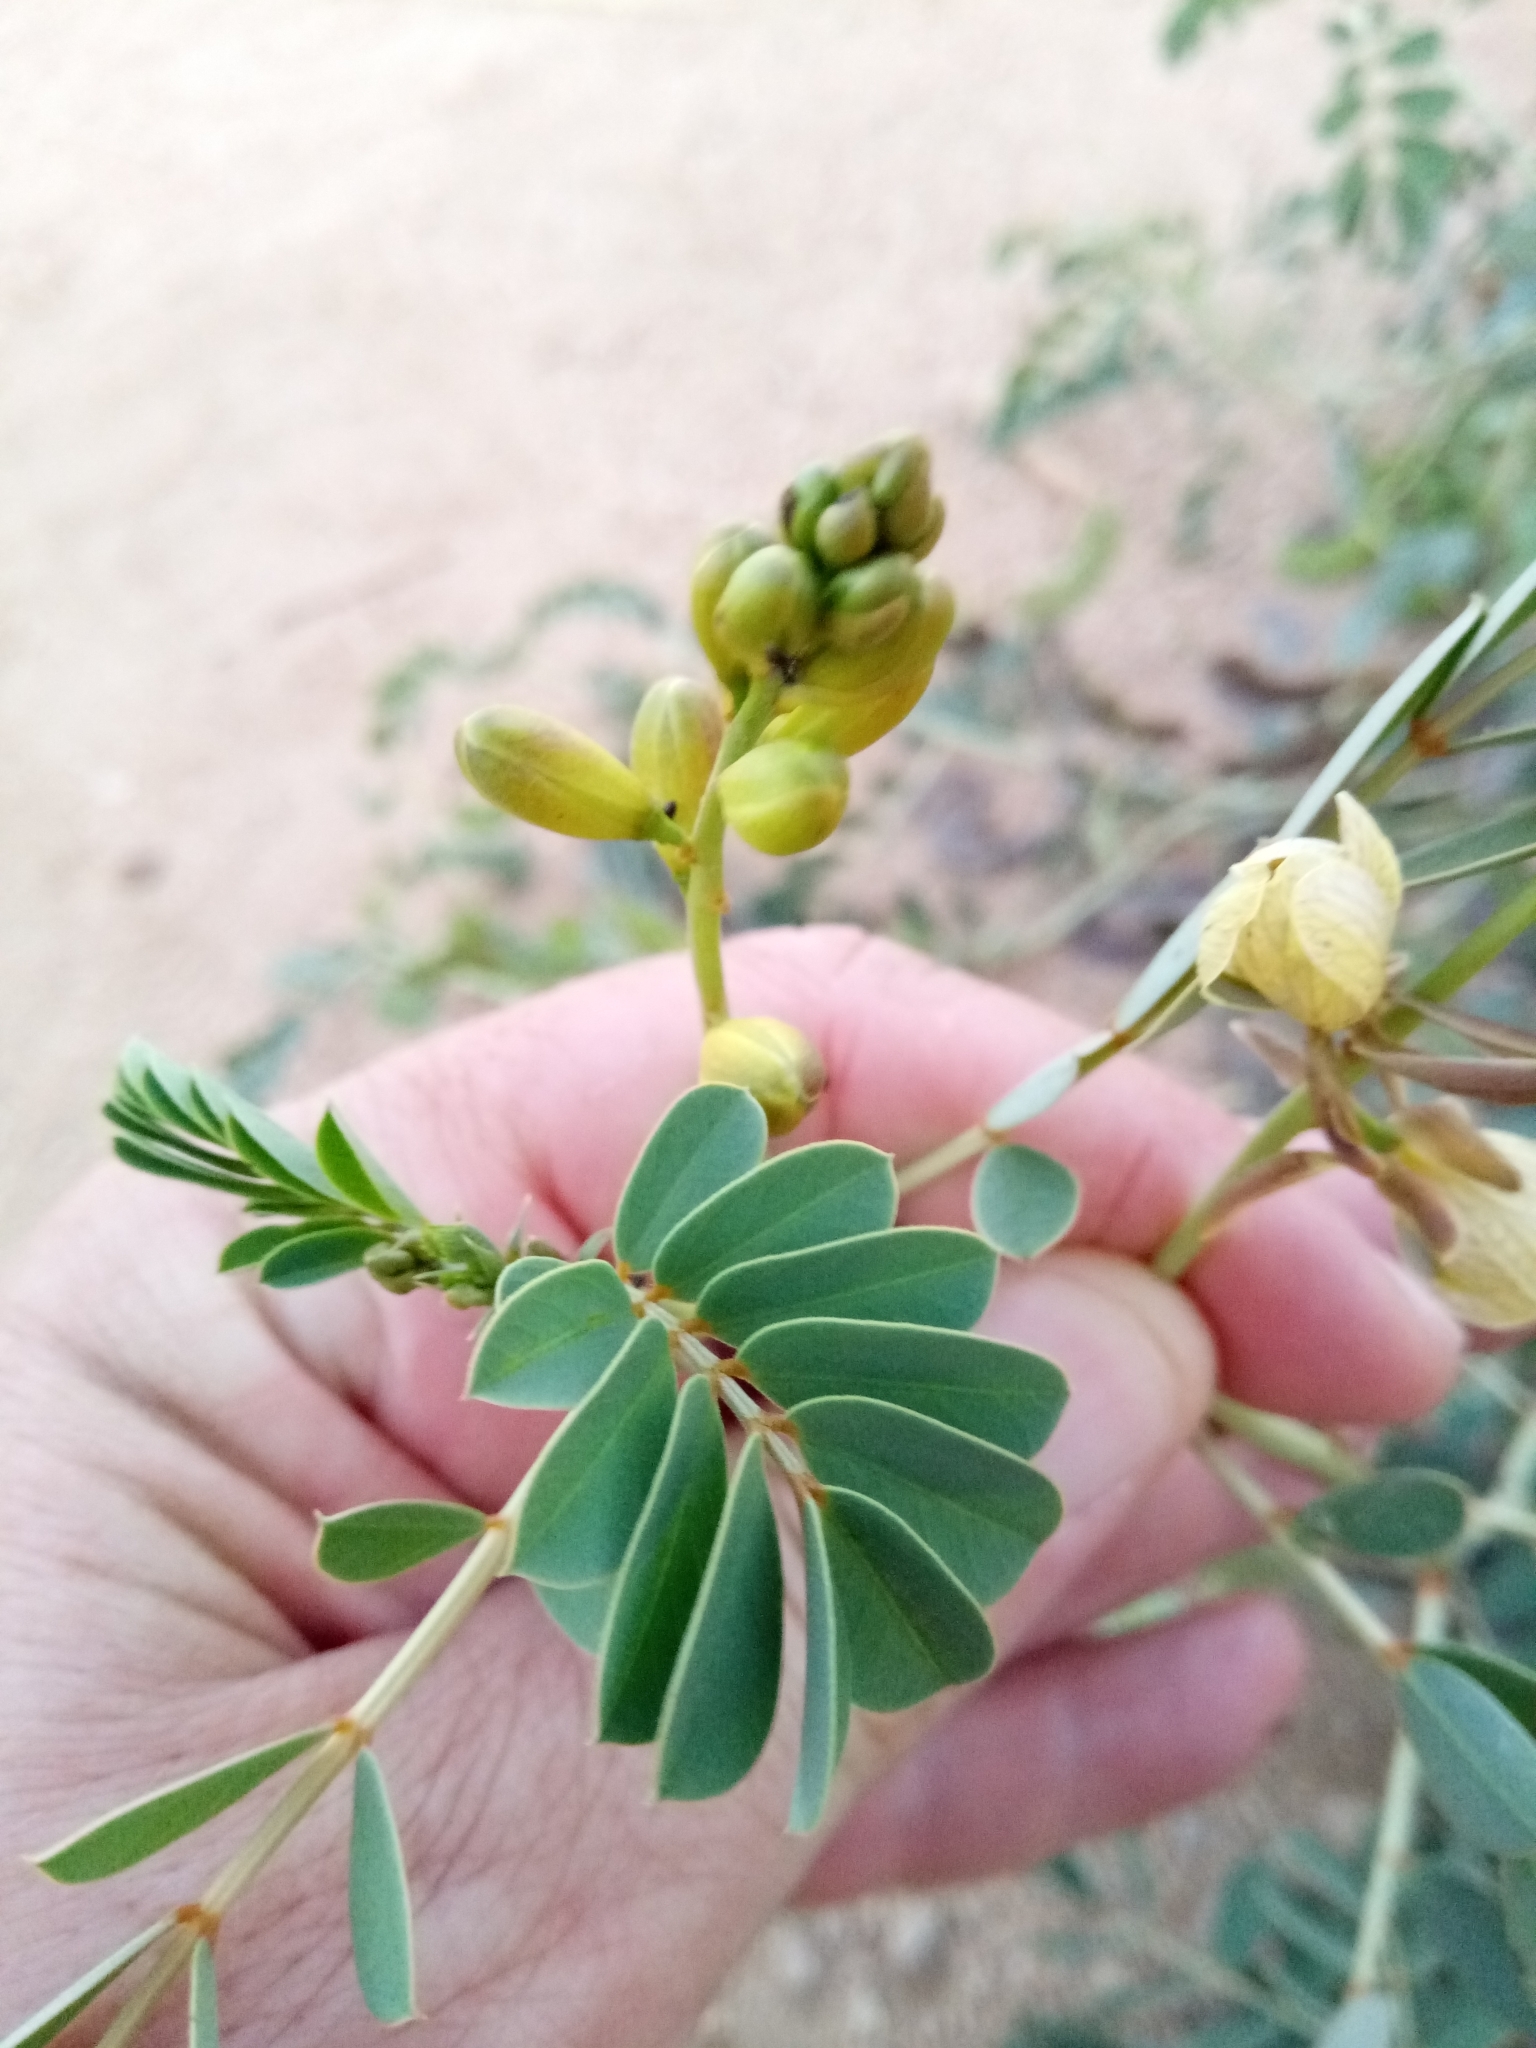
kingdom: Plantae
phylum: Tracheophyta
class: Magnoliopsida
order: Fabales
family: Fabaceae
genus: Senna
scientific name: Senna italica
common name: Port royal senna
